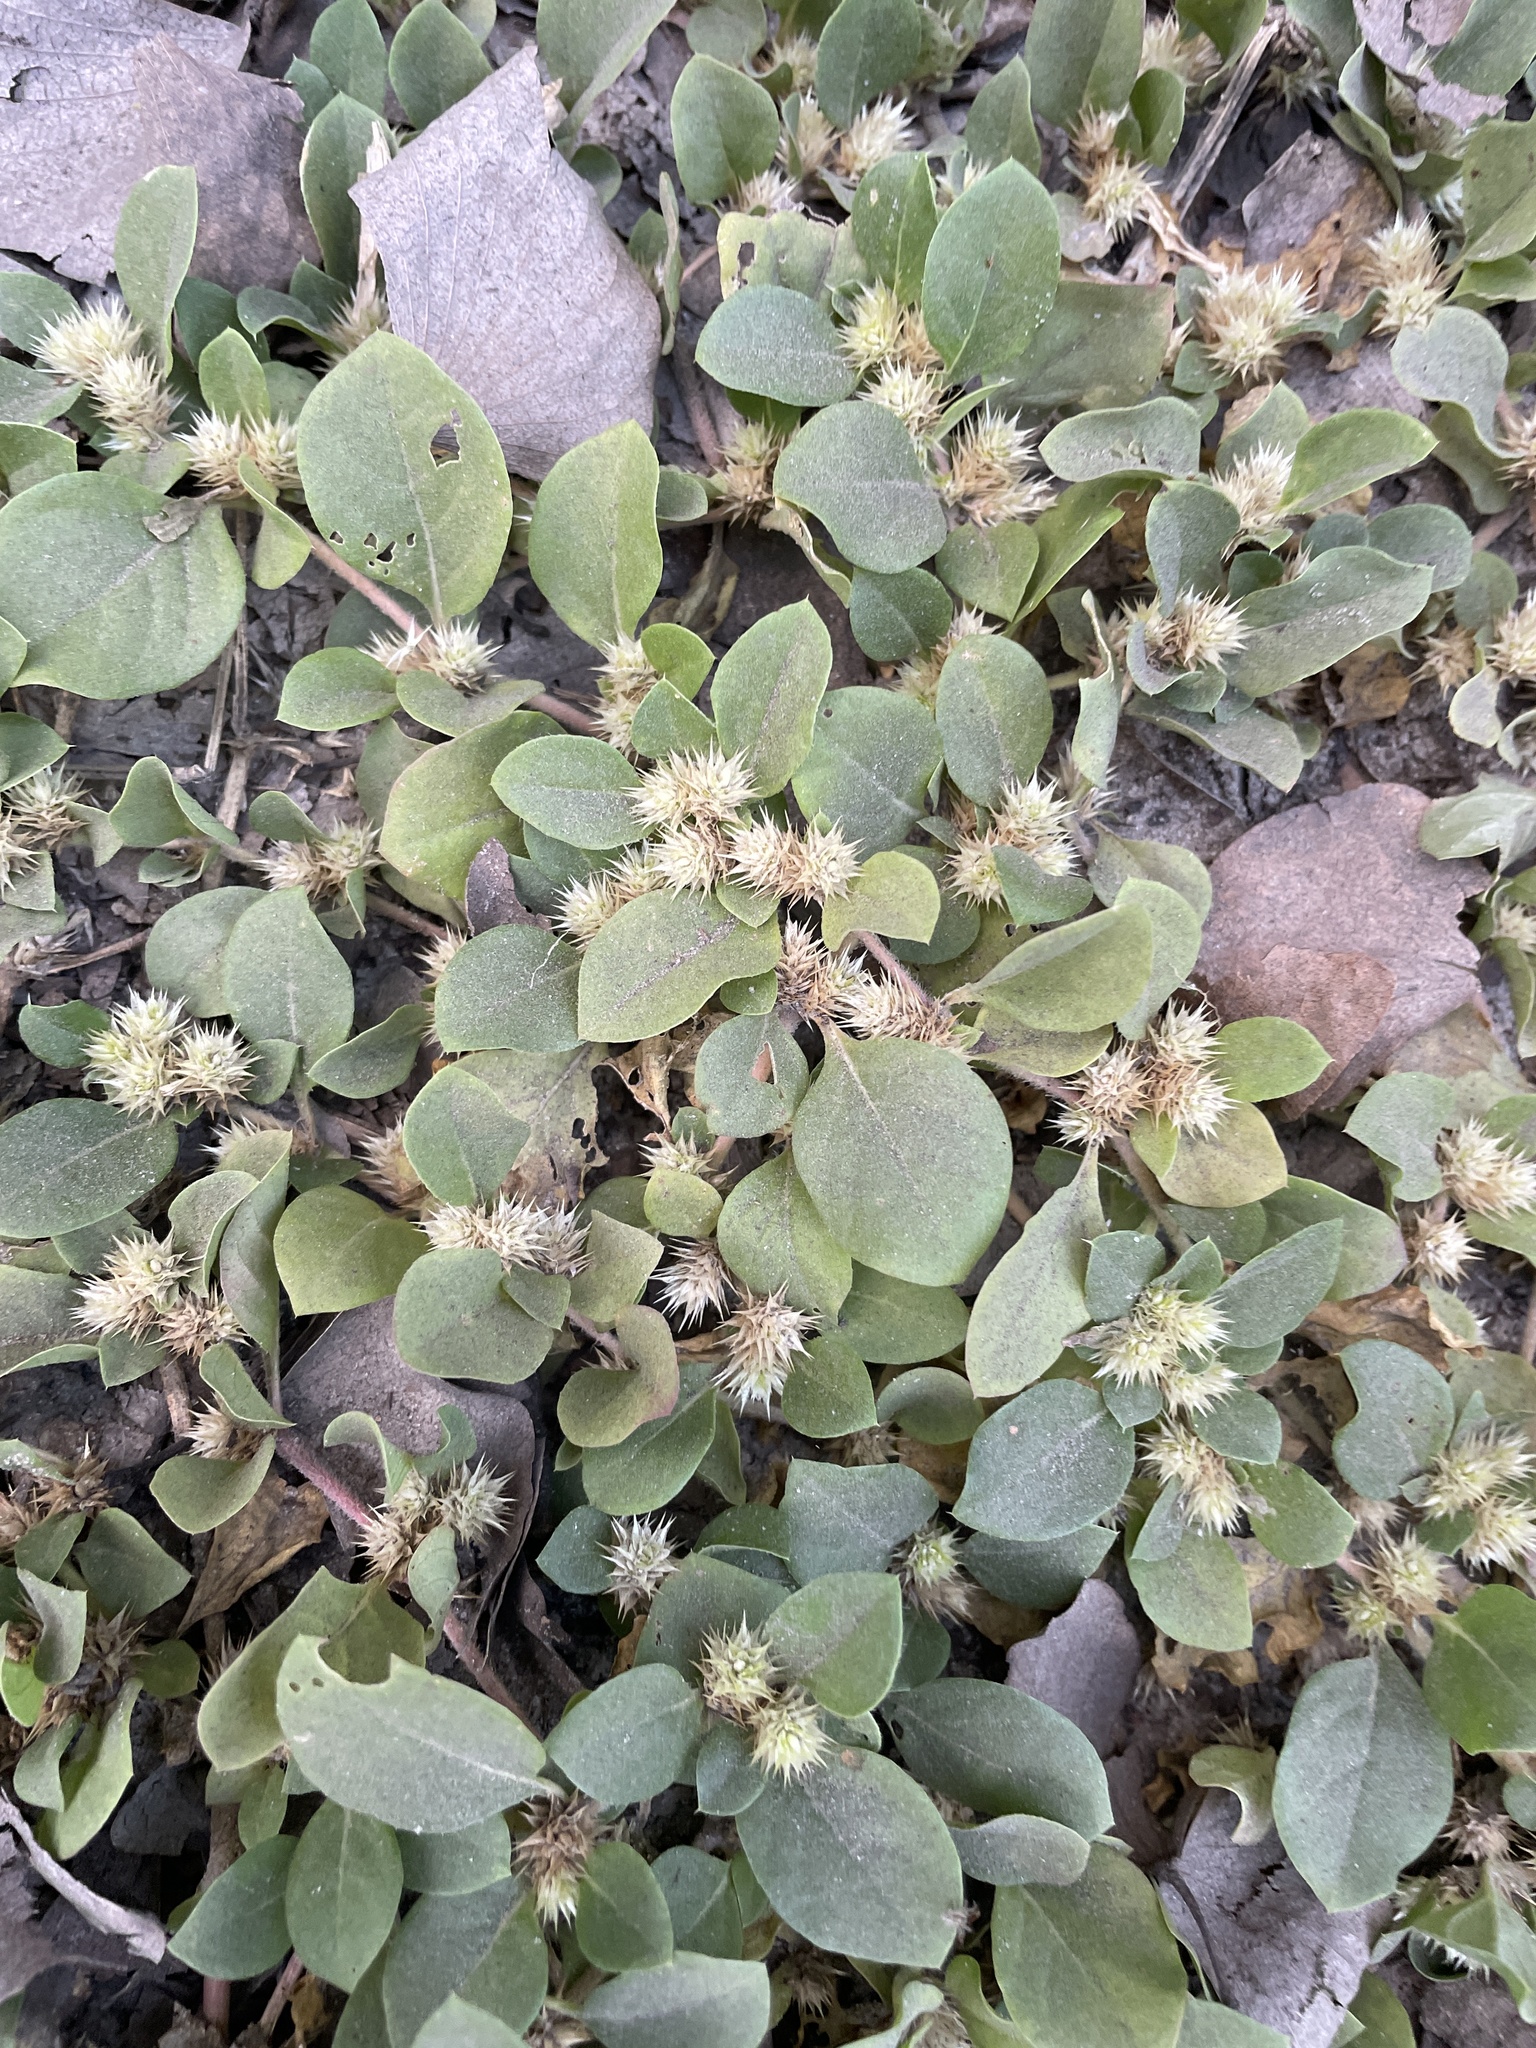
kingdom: Plantae
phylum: Tracheophyta
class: Magnoliopsida
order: Caryophyllales
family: Amaranthaceae
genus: Alternanthera
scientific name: Alternanthera pungens
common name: Khakiweed
